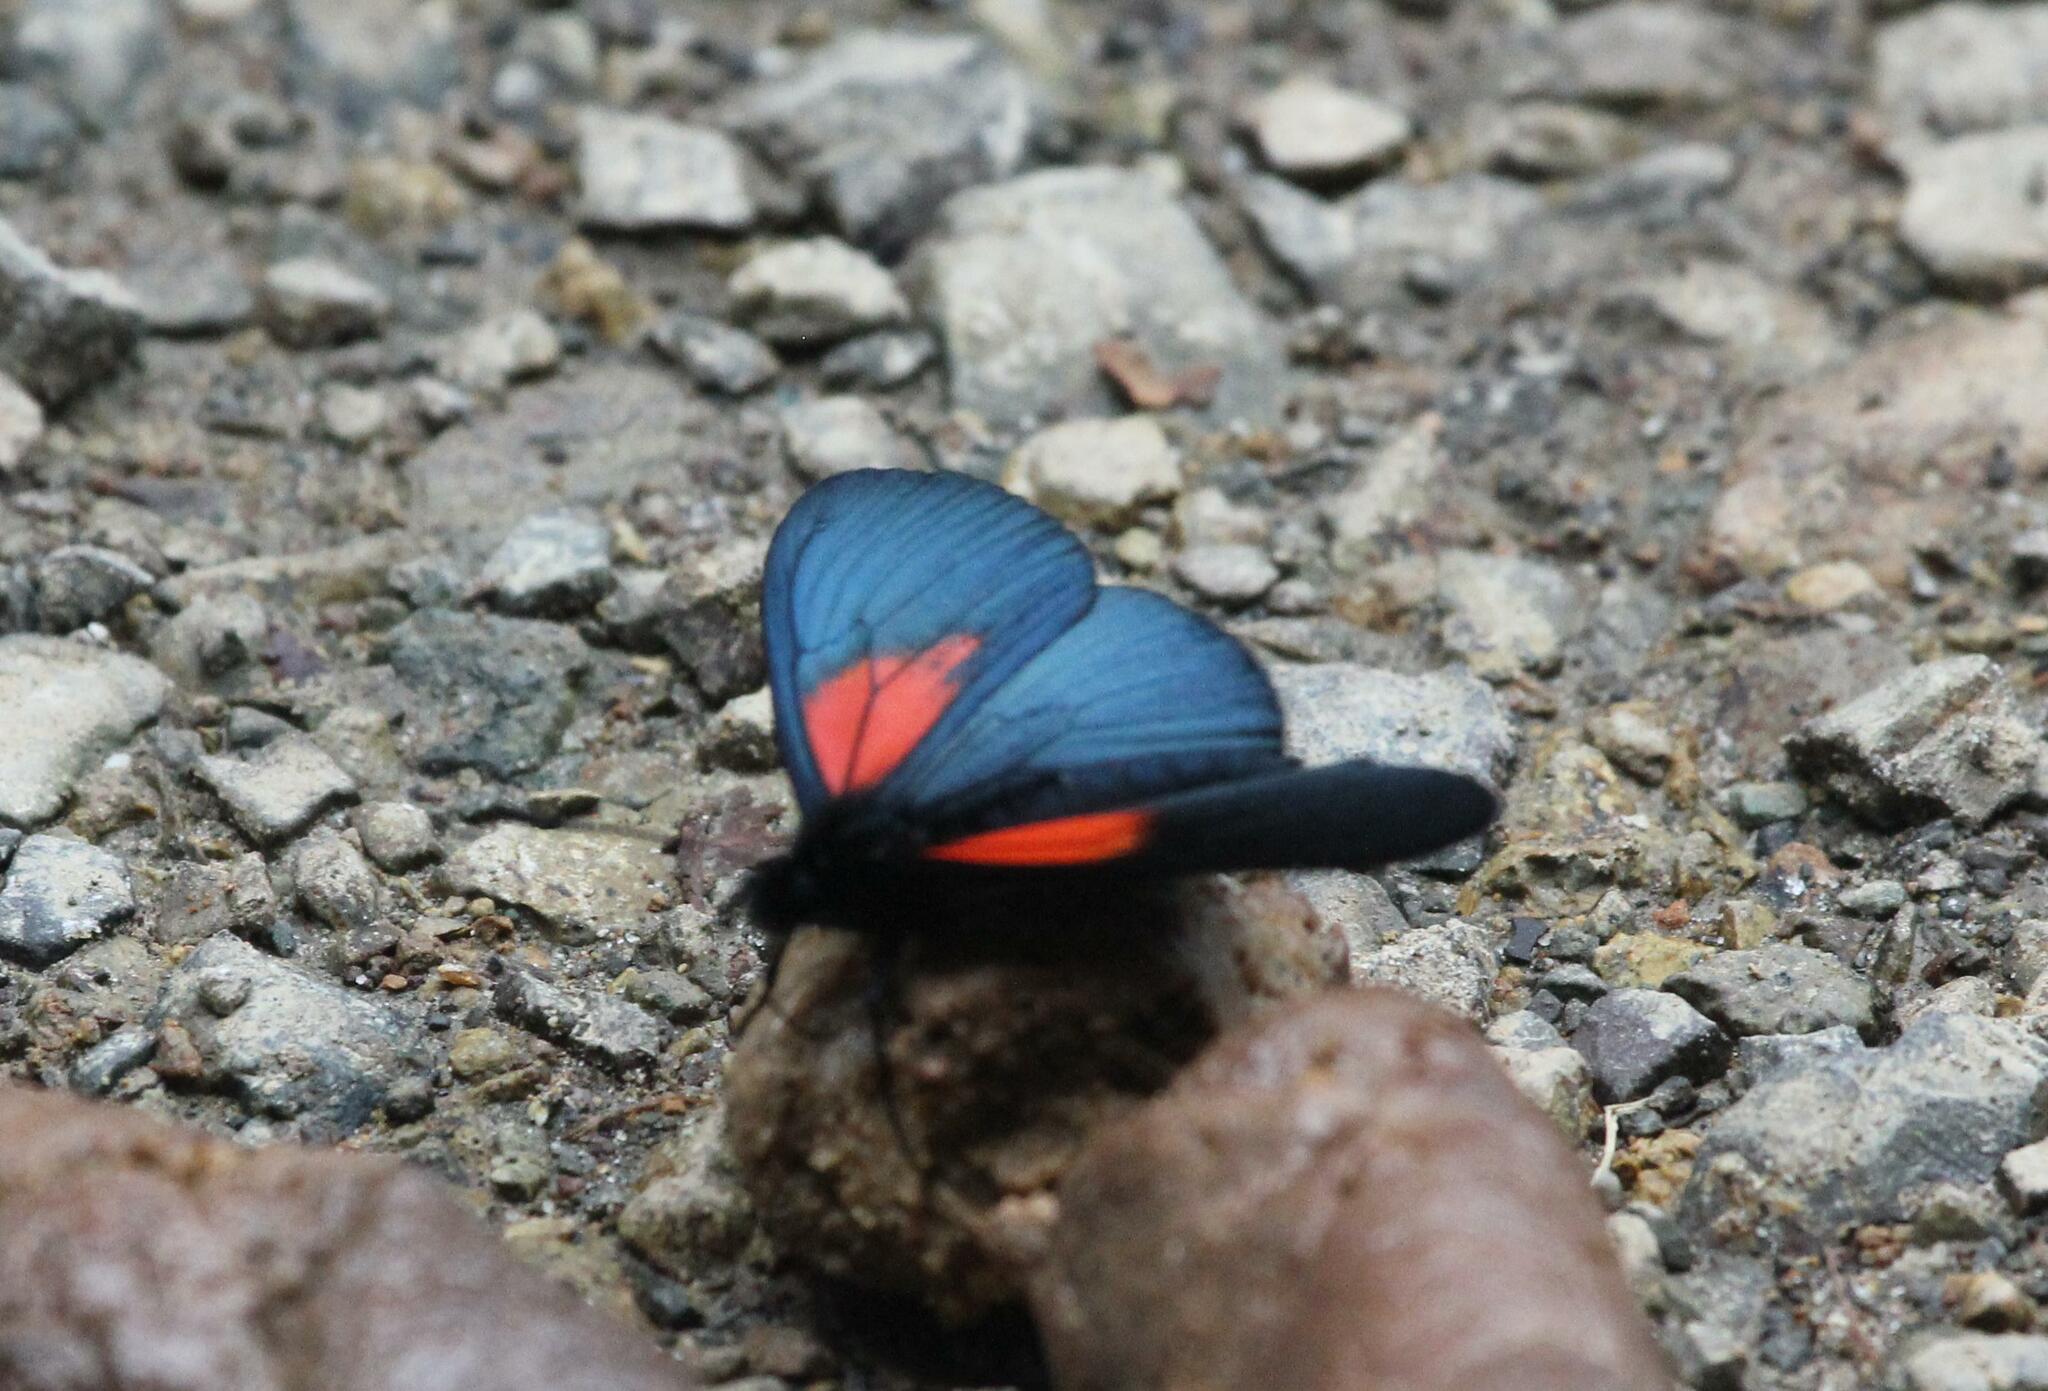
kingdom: Animalia
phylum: Arthropoda
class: Insecta
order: Lepidoptera
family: Nymphalidae
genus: Acraea
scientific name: Acraea Altinote ozomene
